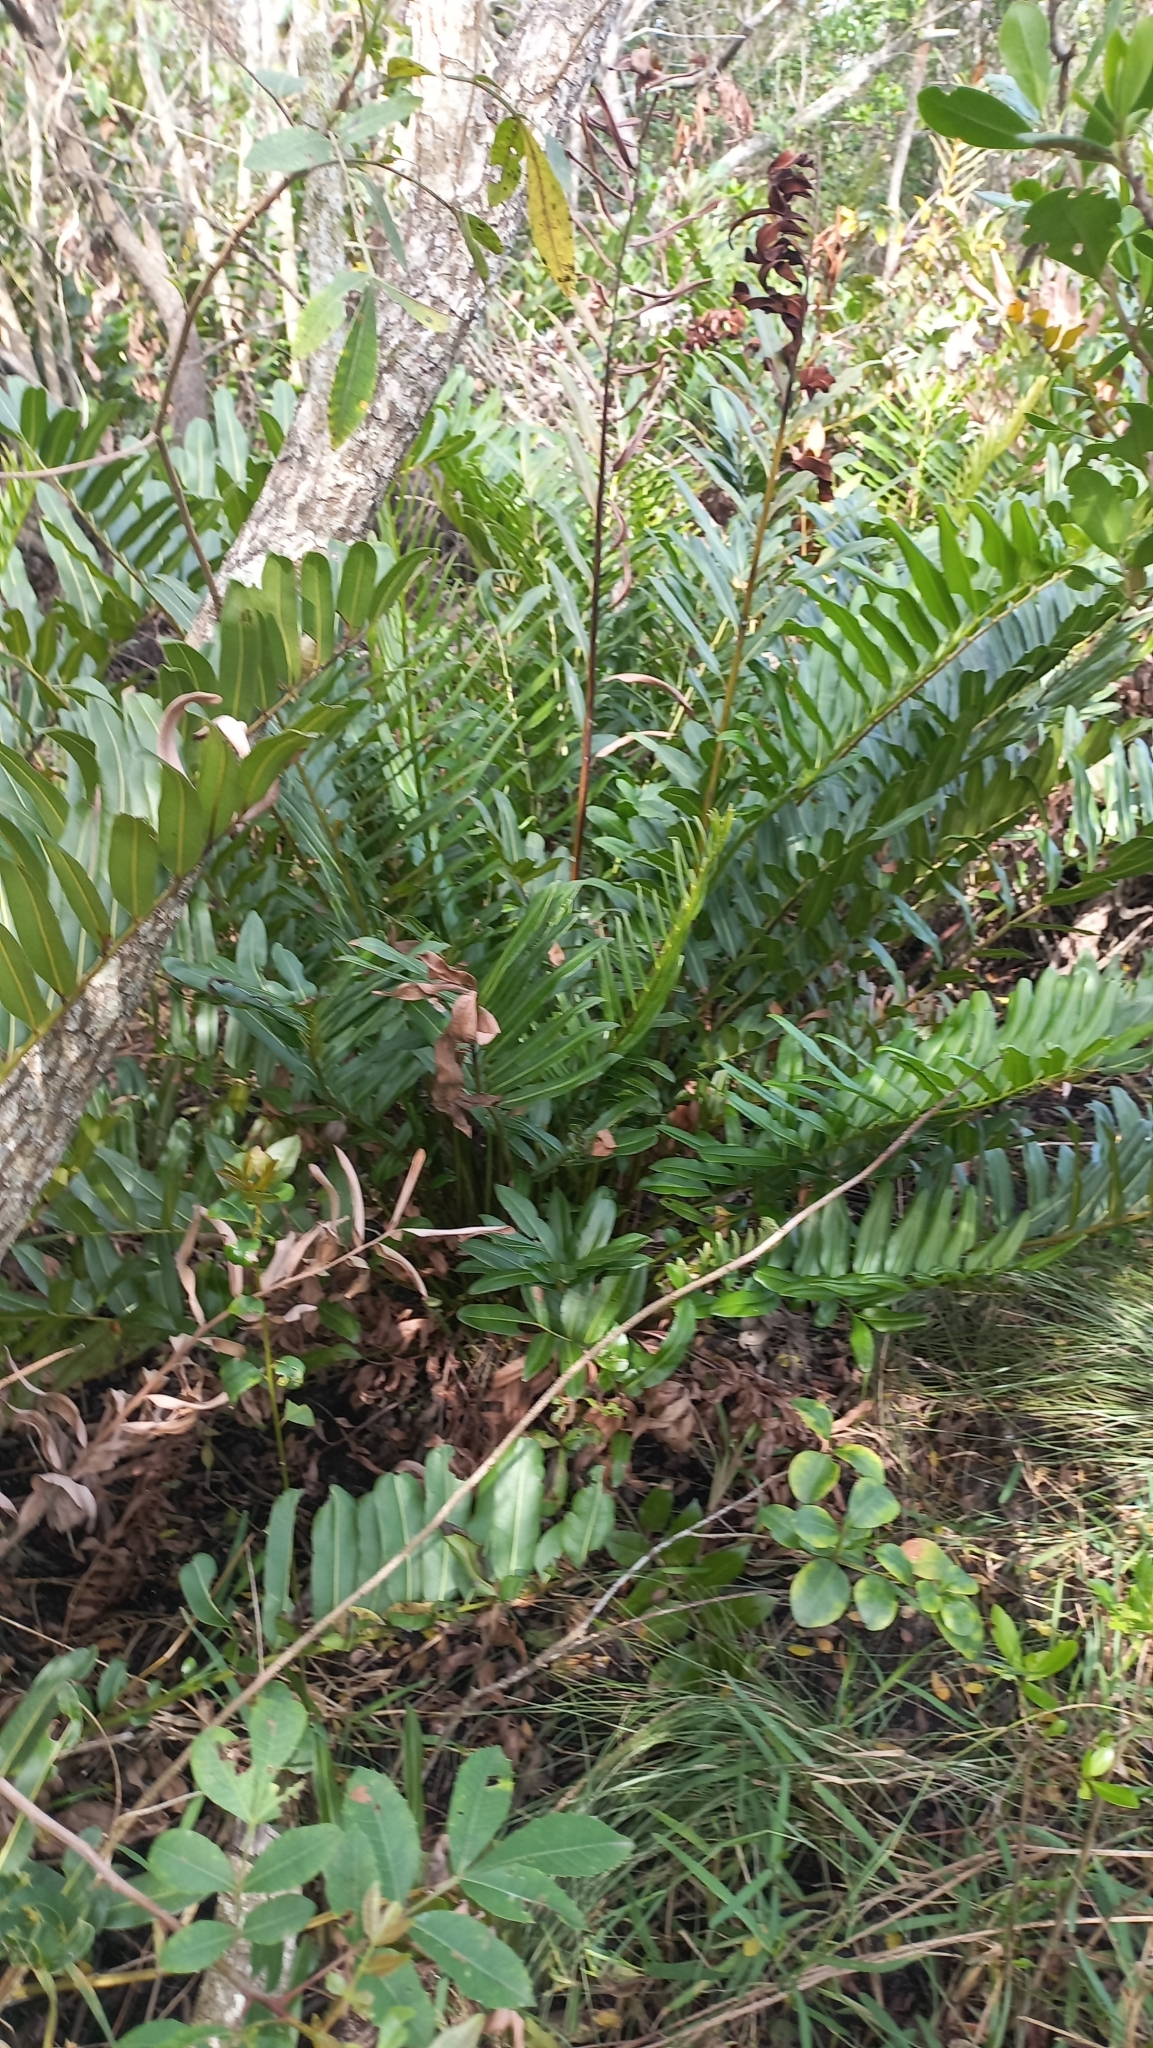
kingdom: Plantae
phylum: Tracheophyta
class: Polypodiopsida
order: Polypodiales
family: Pteridaceae
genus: Acrostichum
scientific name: Acrostichum danaeifolium
